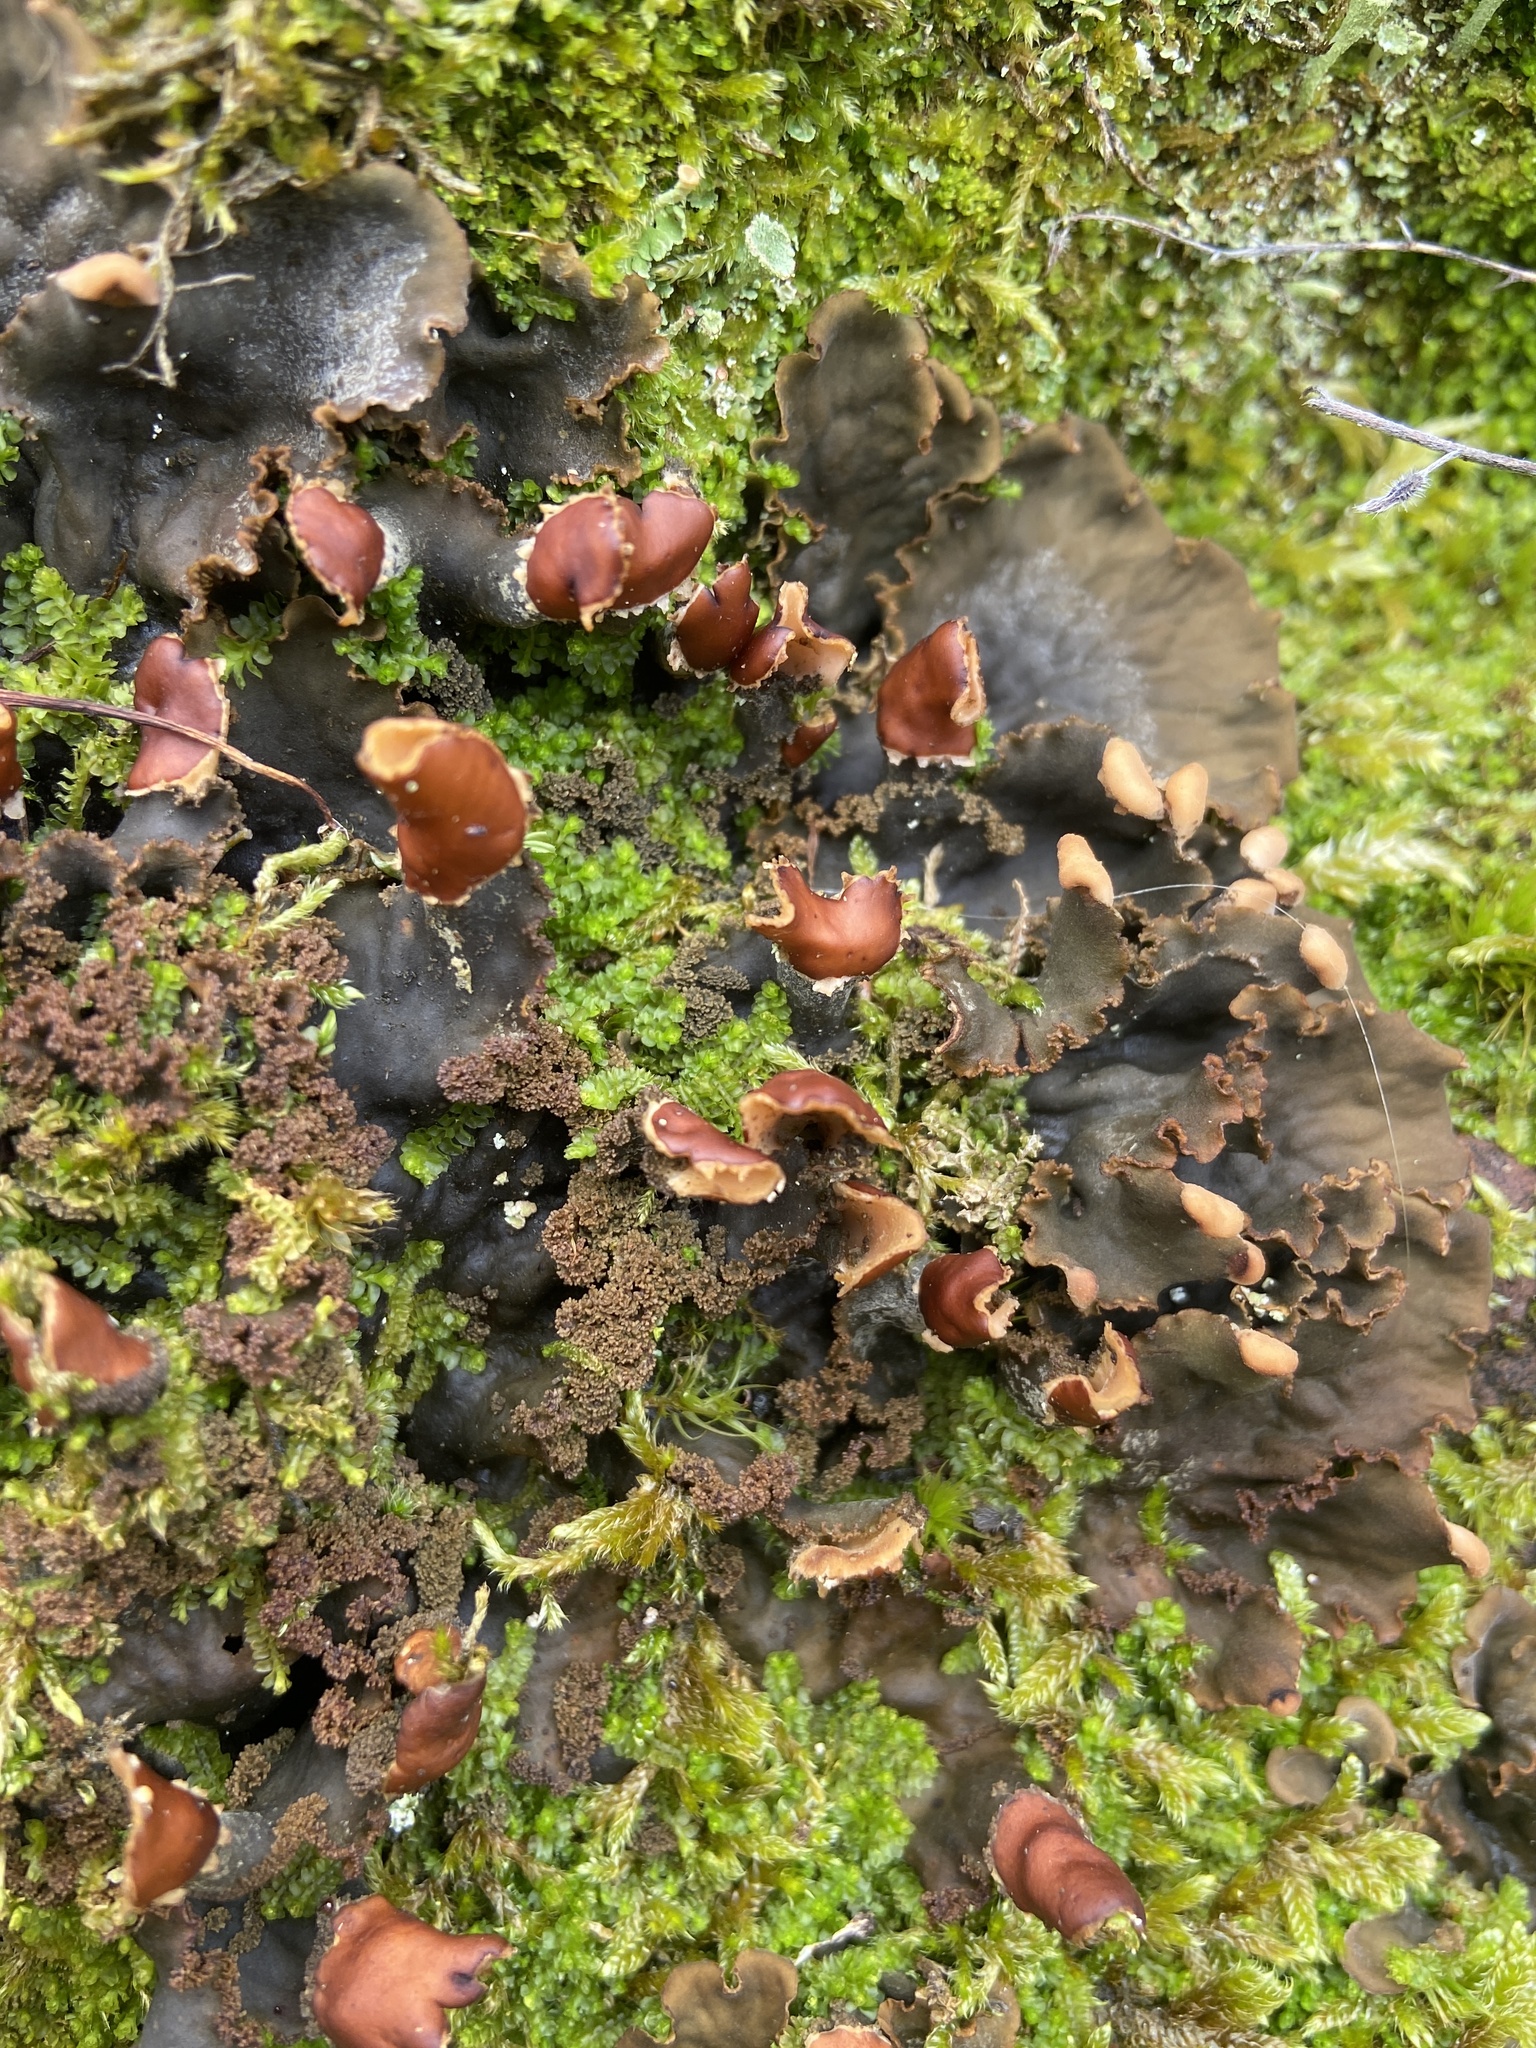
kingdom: Fungi
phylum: Ascomycota
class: Lecanoromycetes
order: Peltigerales
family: Peltigeraceae
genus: Peltigera
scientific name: Peltigera praetextata
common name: Scaly dog-lichen
